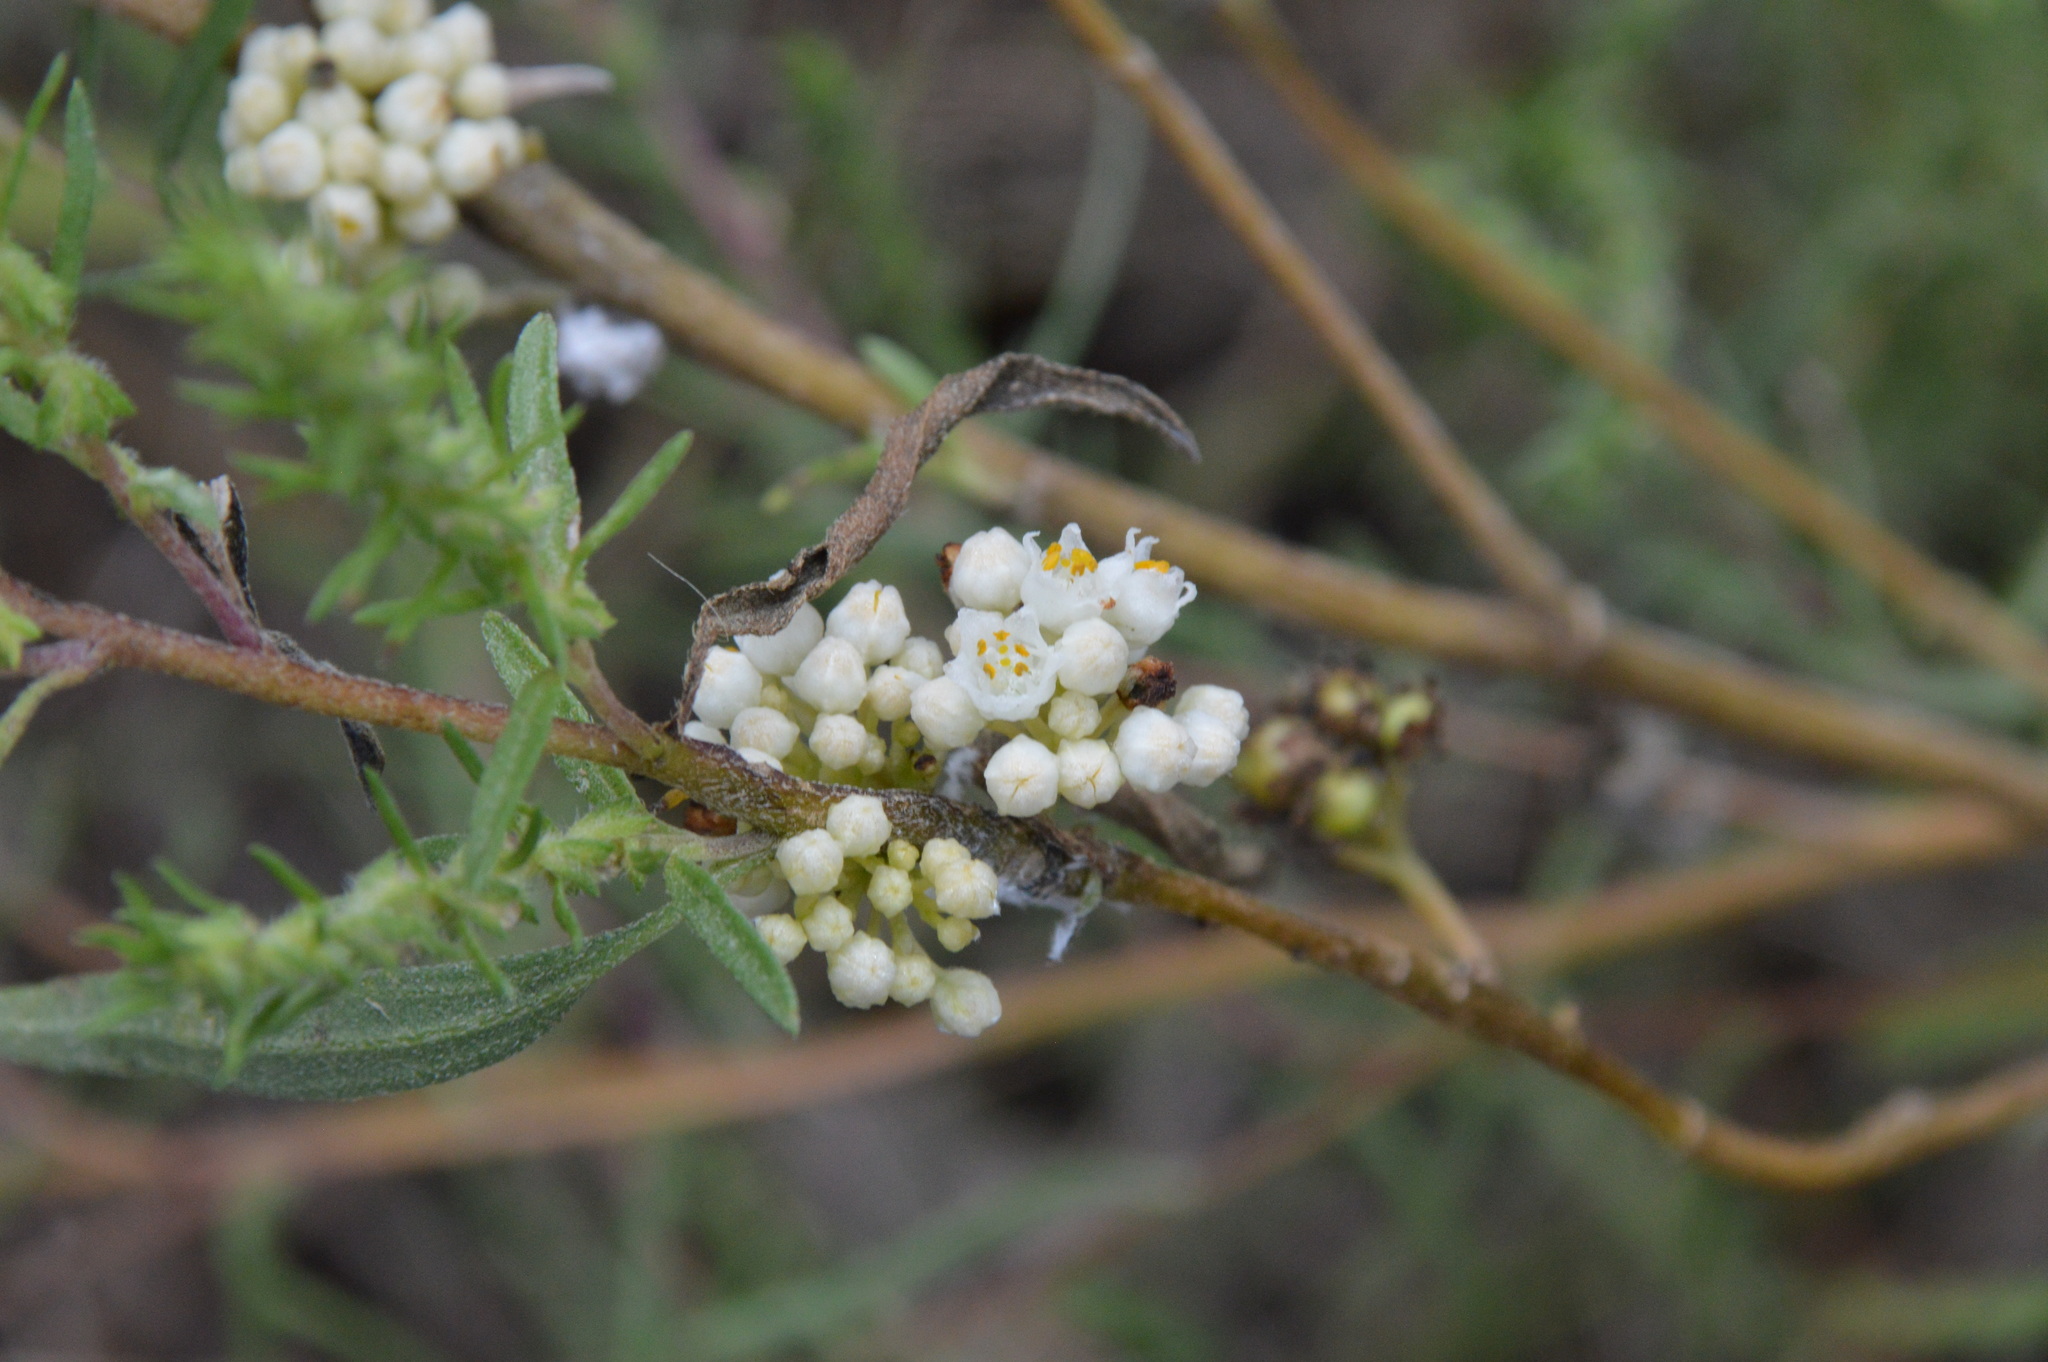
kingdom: Plantae
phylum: Tracheophyta
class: Magnoliopsida
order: Solanales
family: Convolvulaceae
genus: Cuscuta
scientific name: Cuscuta pentagona
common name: Fiveangled dodder
